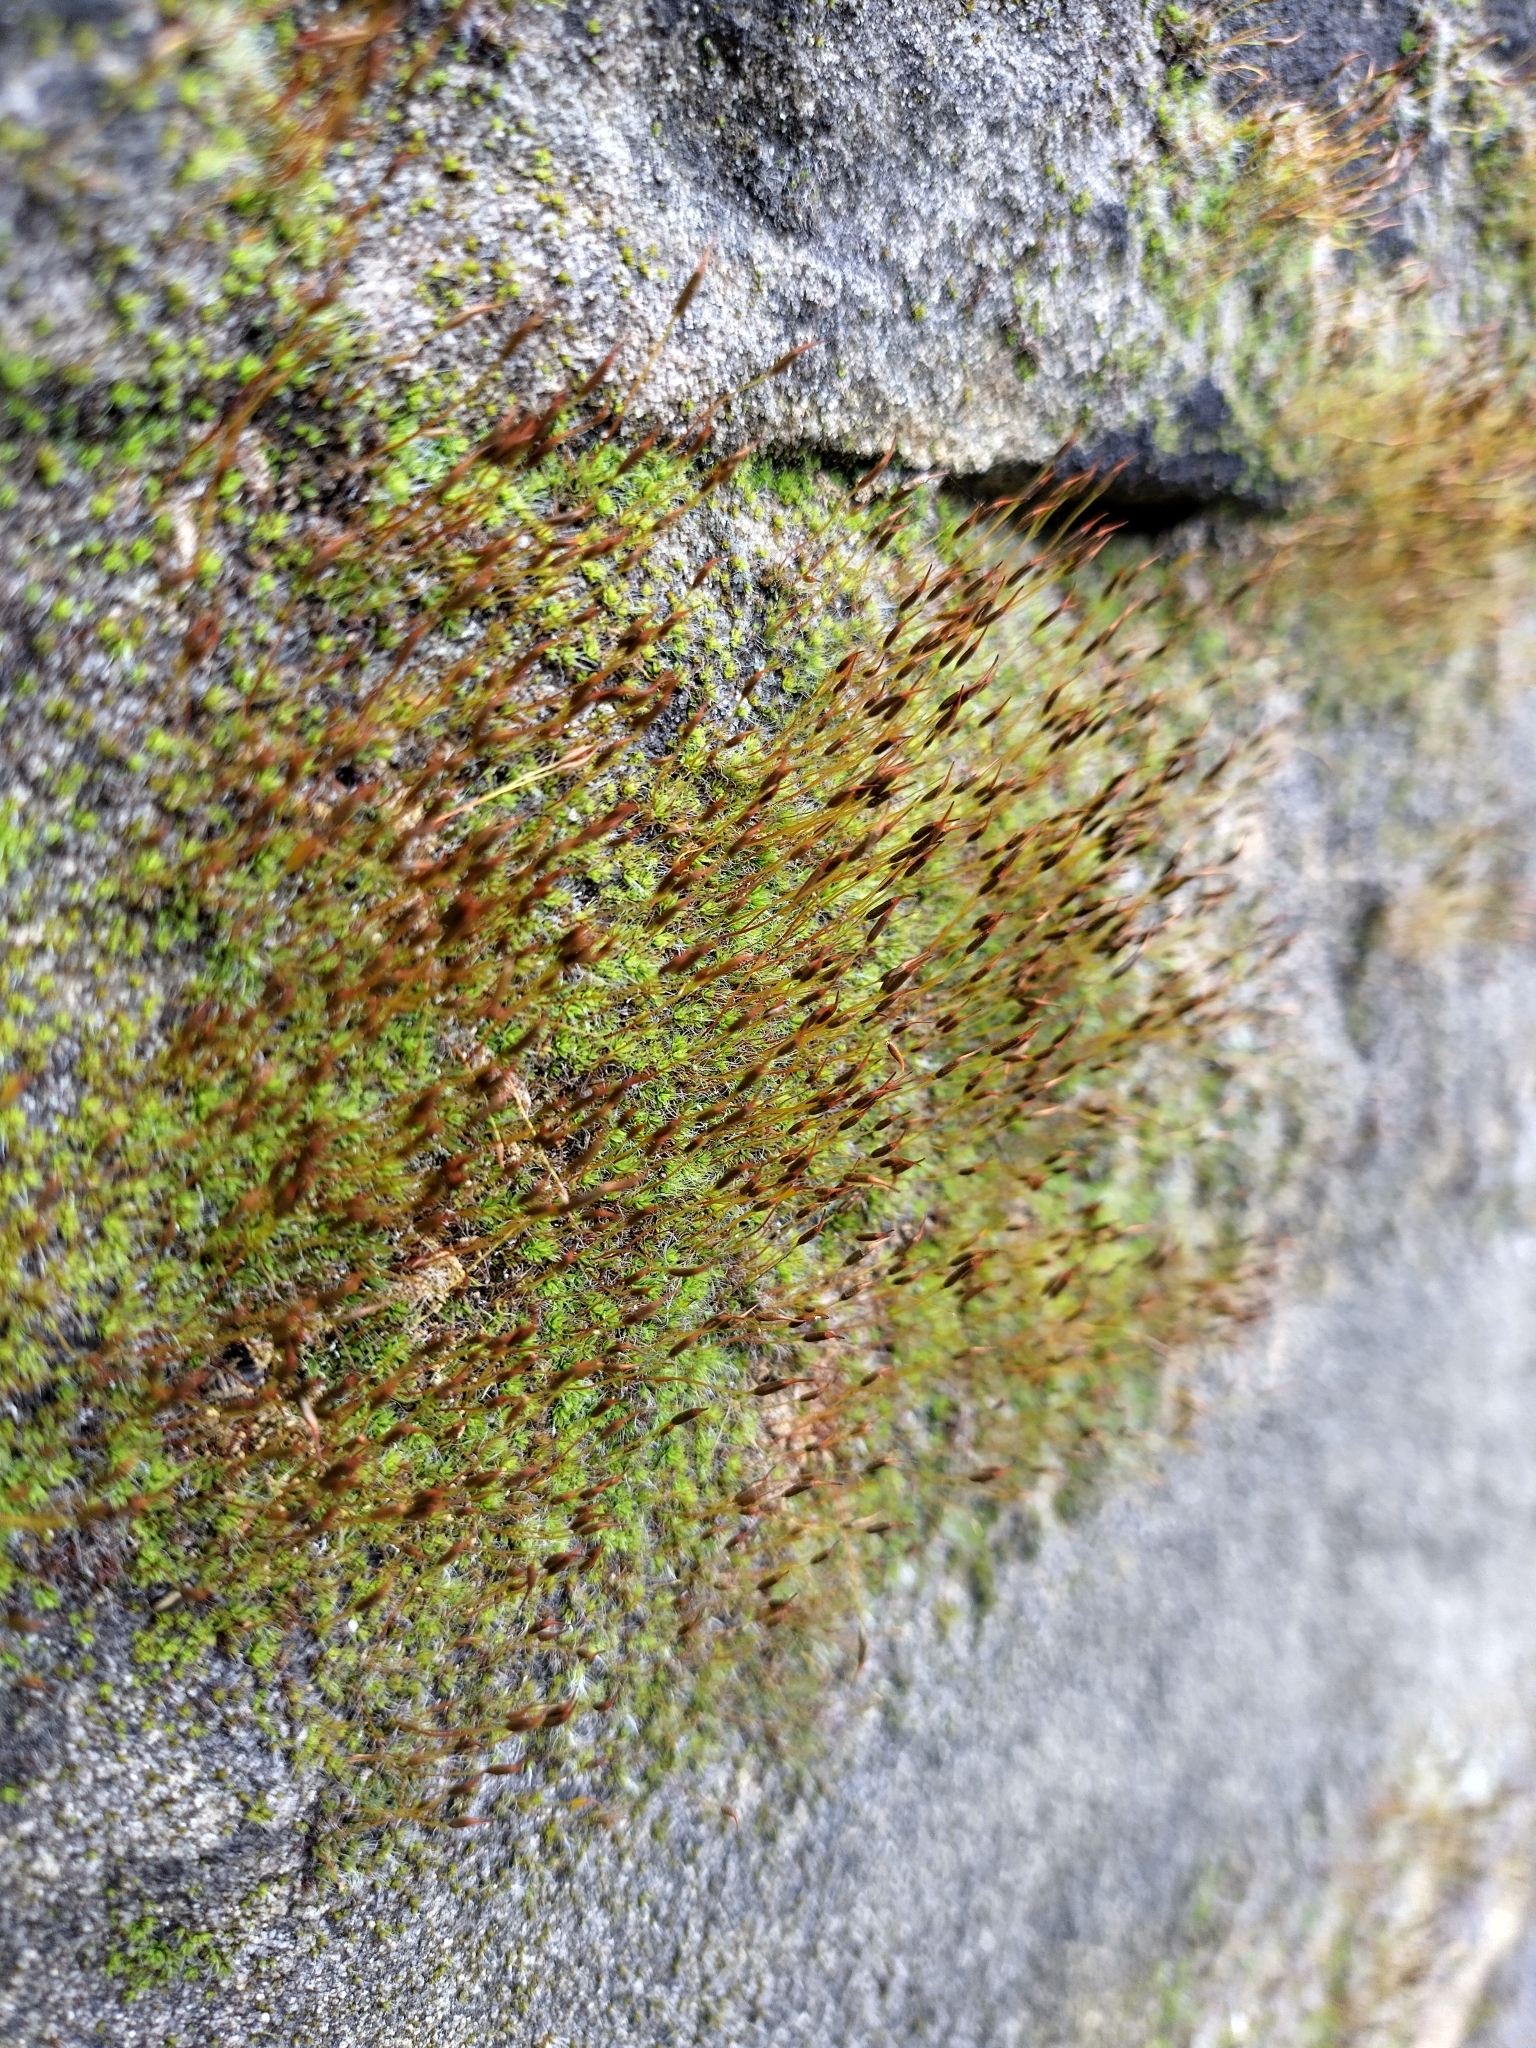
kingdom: Plantae
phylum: Bryophyta
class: Bryopsida
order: Pottiales
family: Pottiaceae
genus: Tortula
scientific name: Tortula muralis
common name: Wall screw-moss
